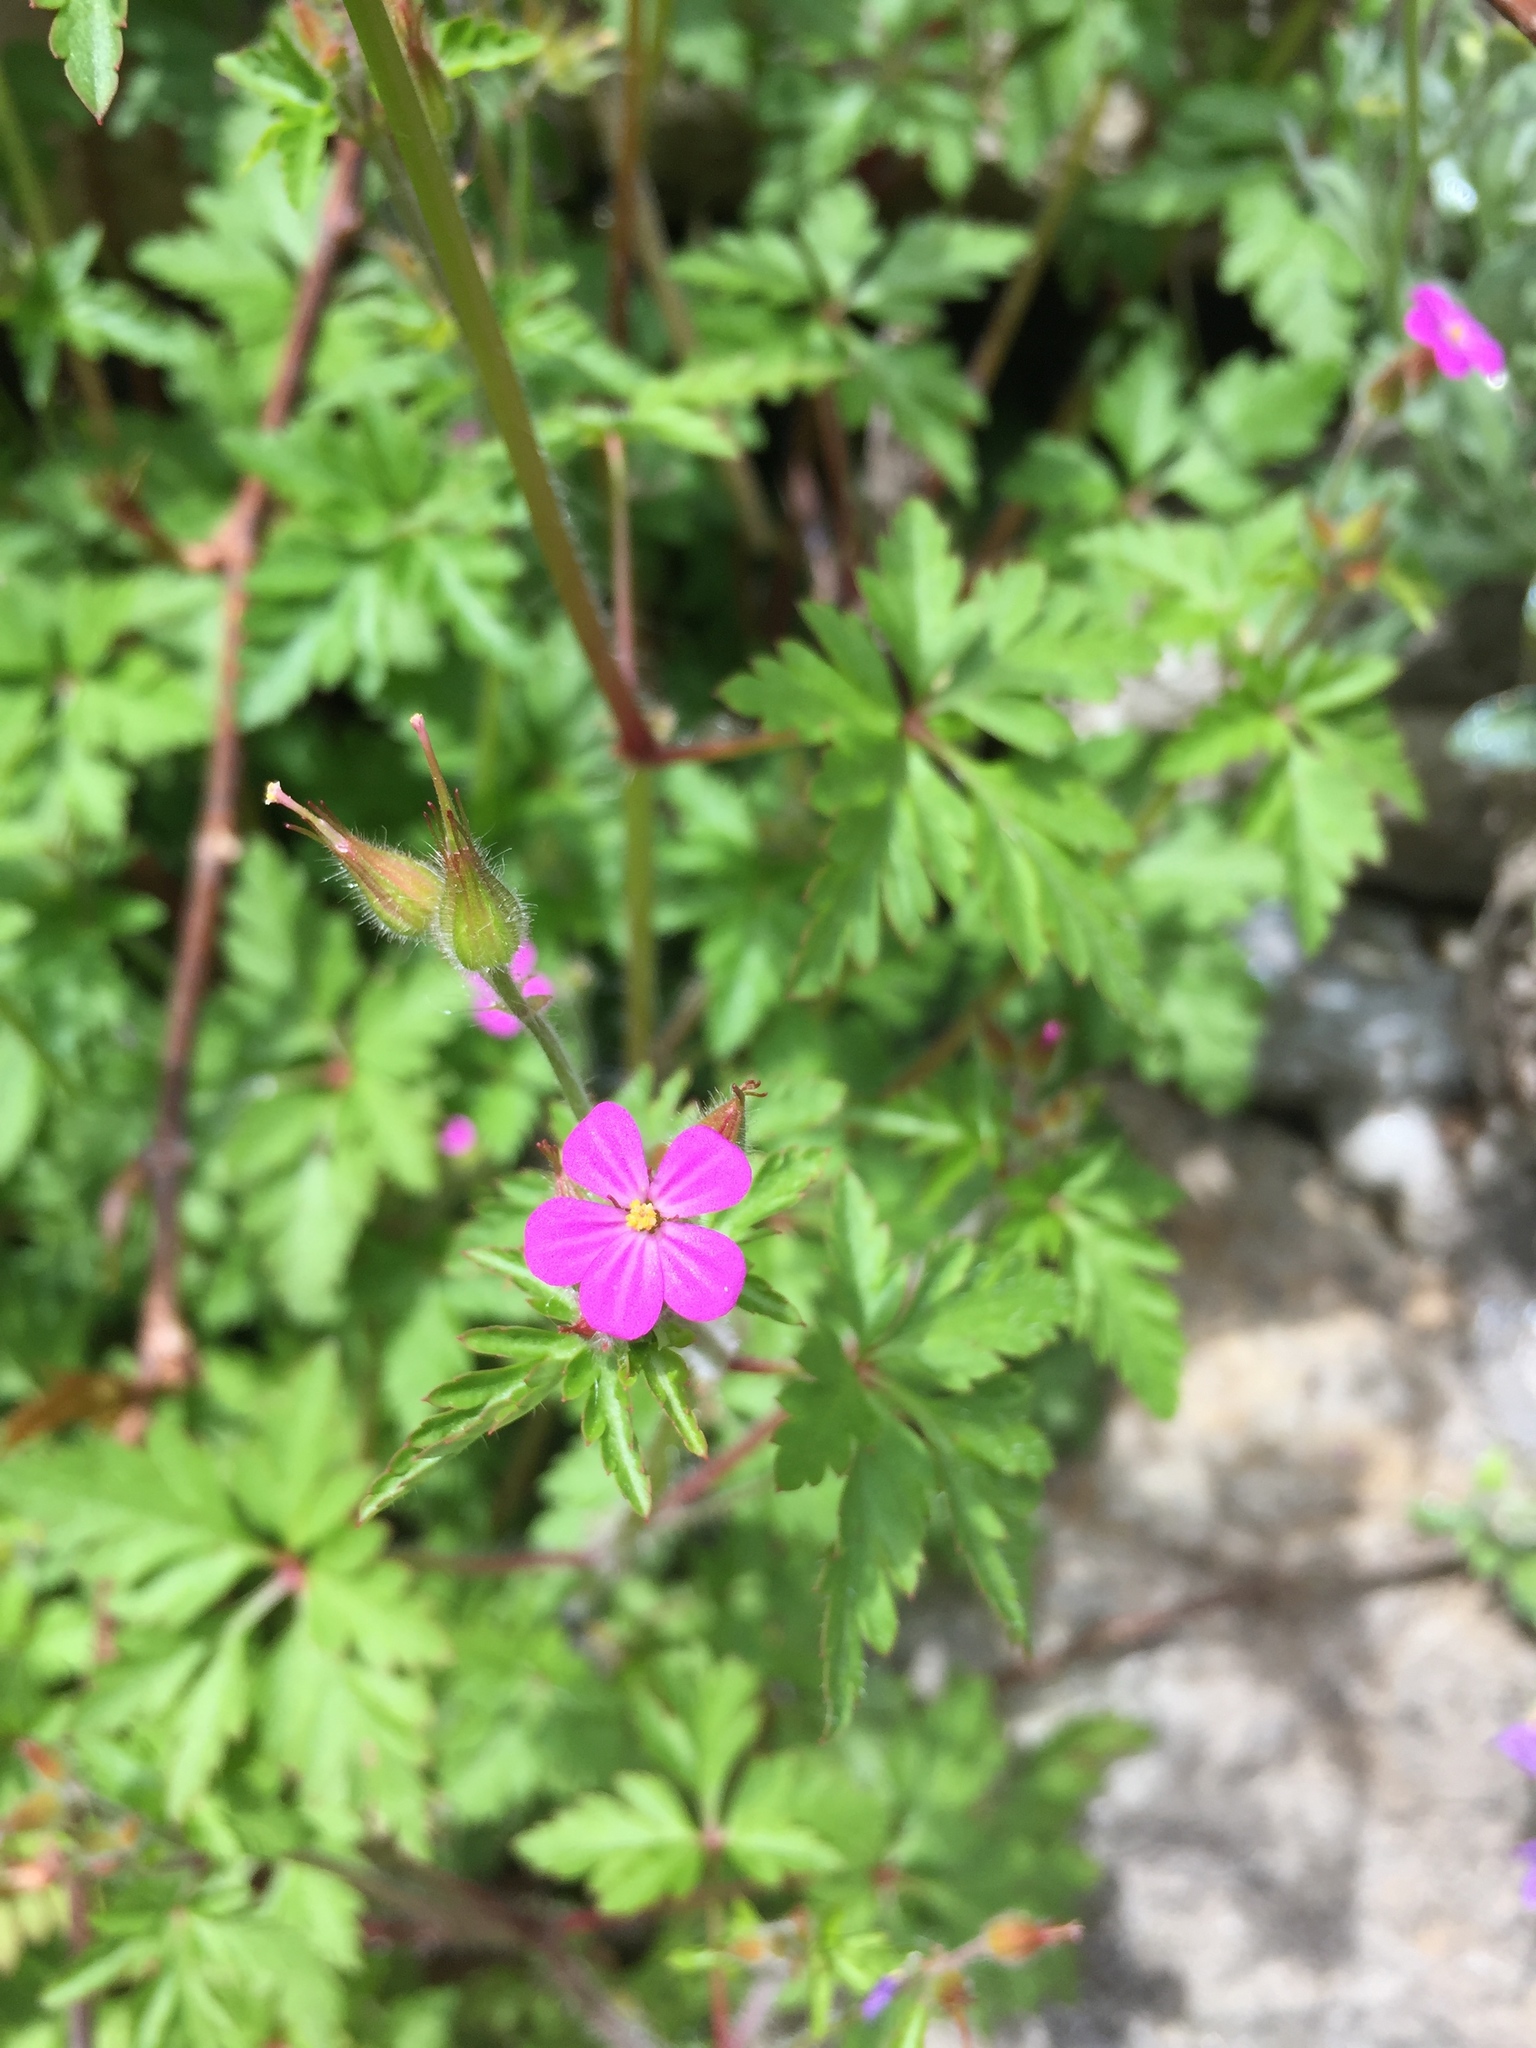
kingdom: Plantae
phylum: Tracheophyta
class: Magnoliopsida
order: Geraniales
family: Geraniaceae
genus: Geranium
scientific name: Geranium robertianum
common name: Herb-robert
